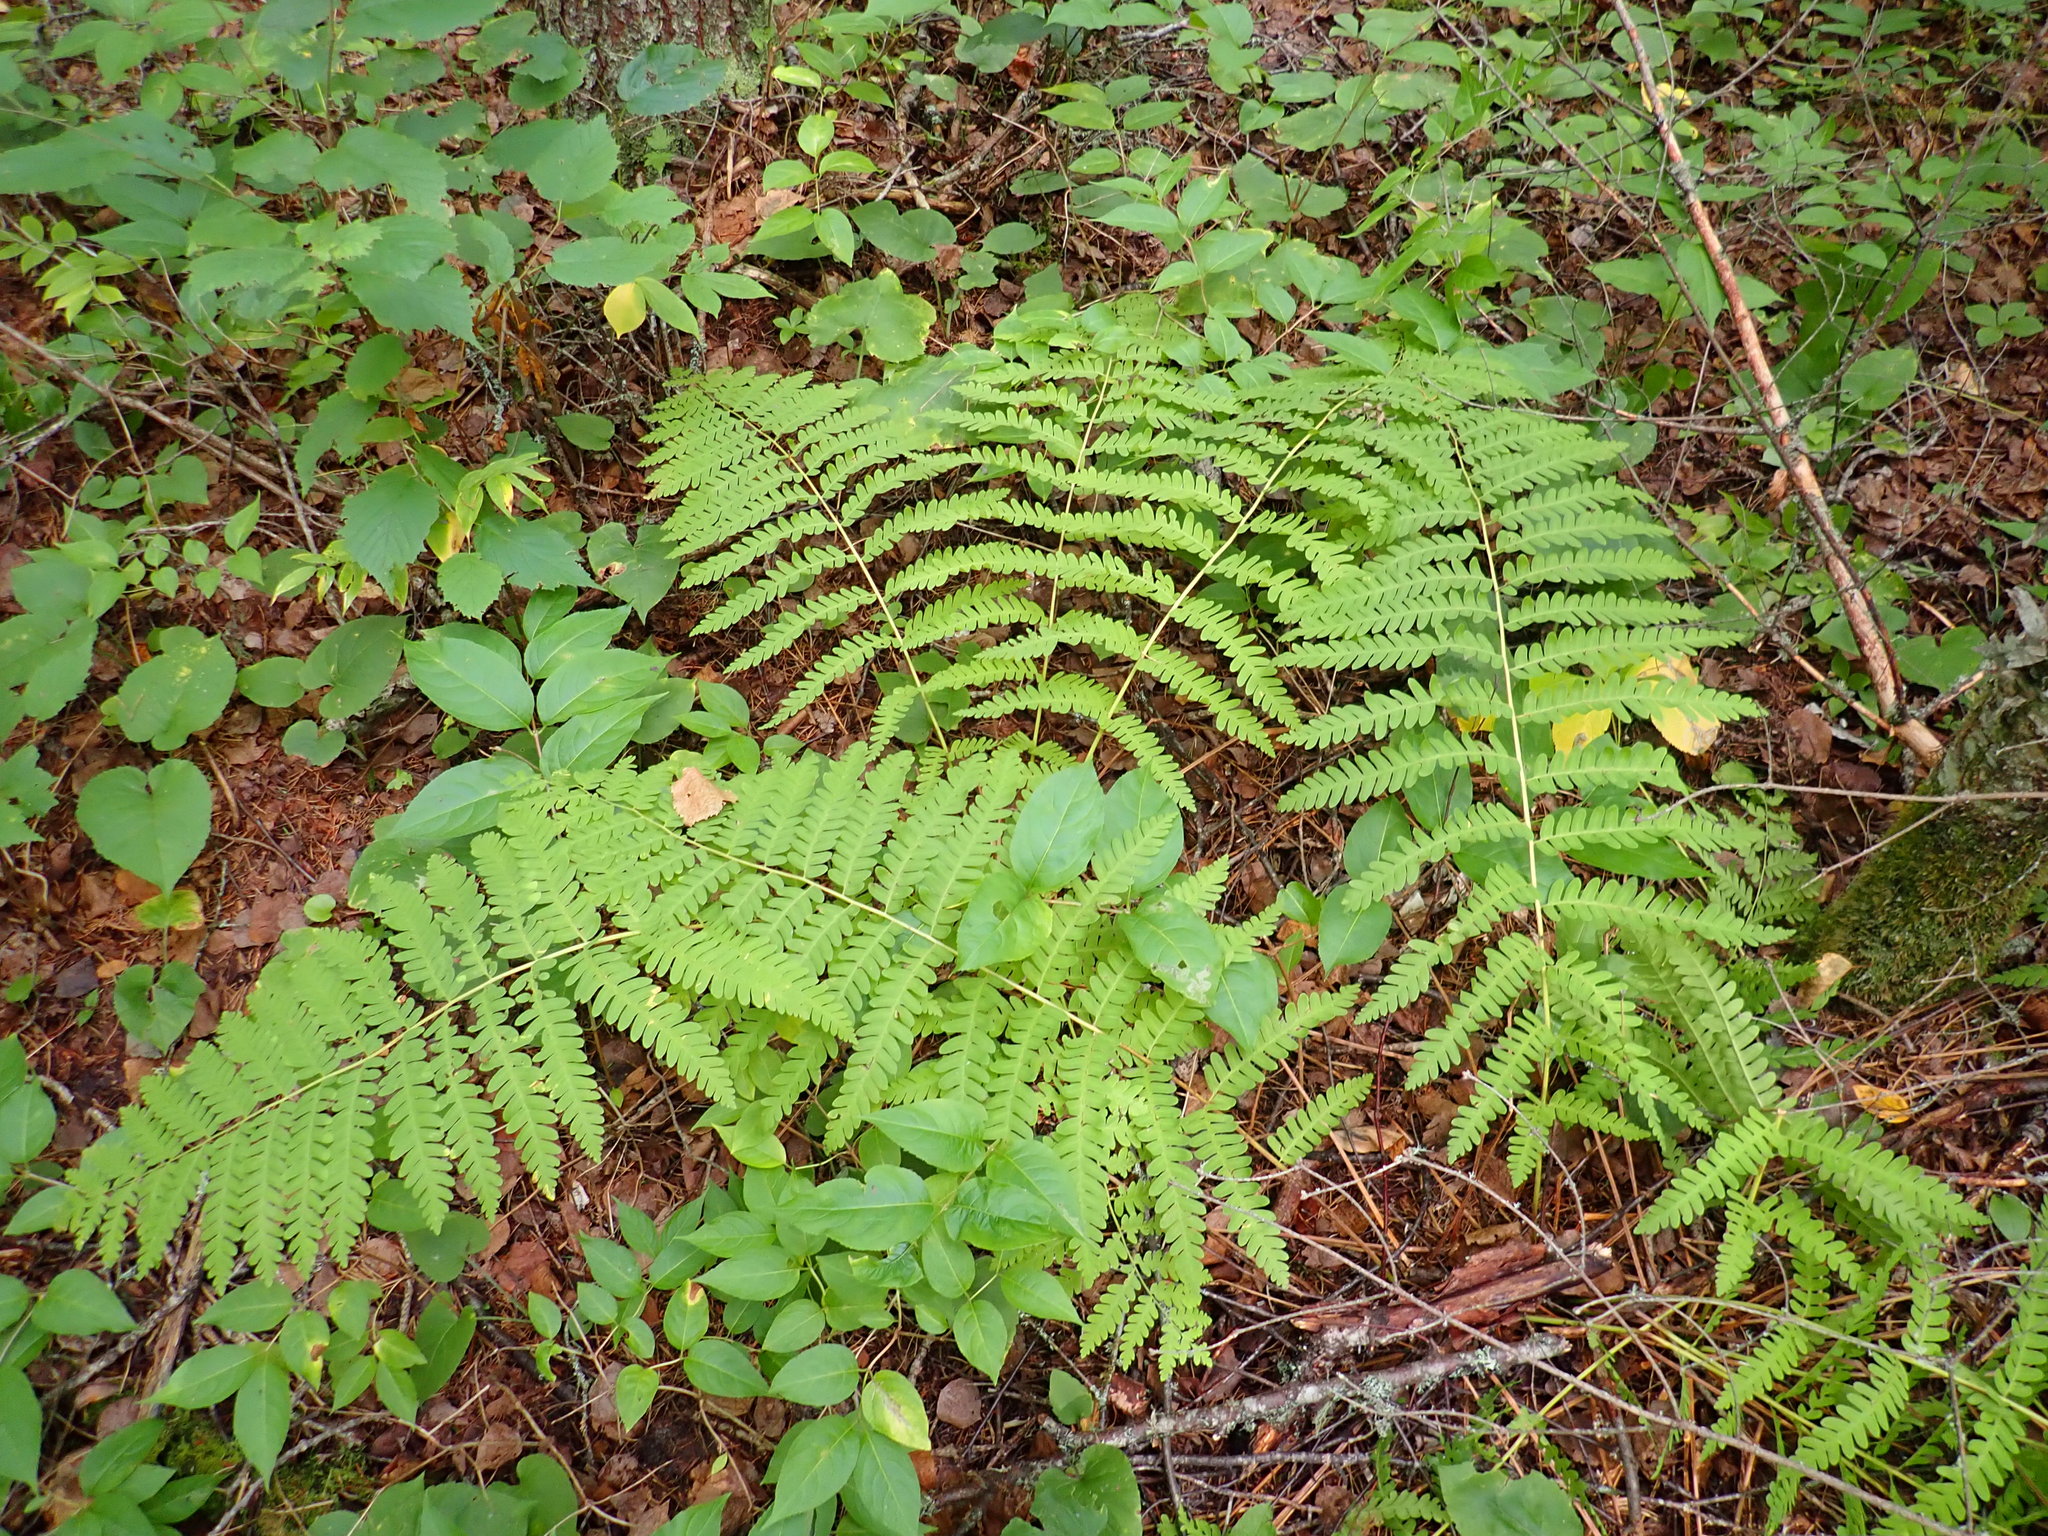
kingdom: Plantae
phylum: Tracheophyta
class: Polypodiopsida
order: Osmundales
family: Osmundaceae
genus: Claytosmunda
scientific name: Claytosmunda claytoniana
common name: Clayton's fern
